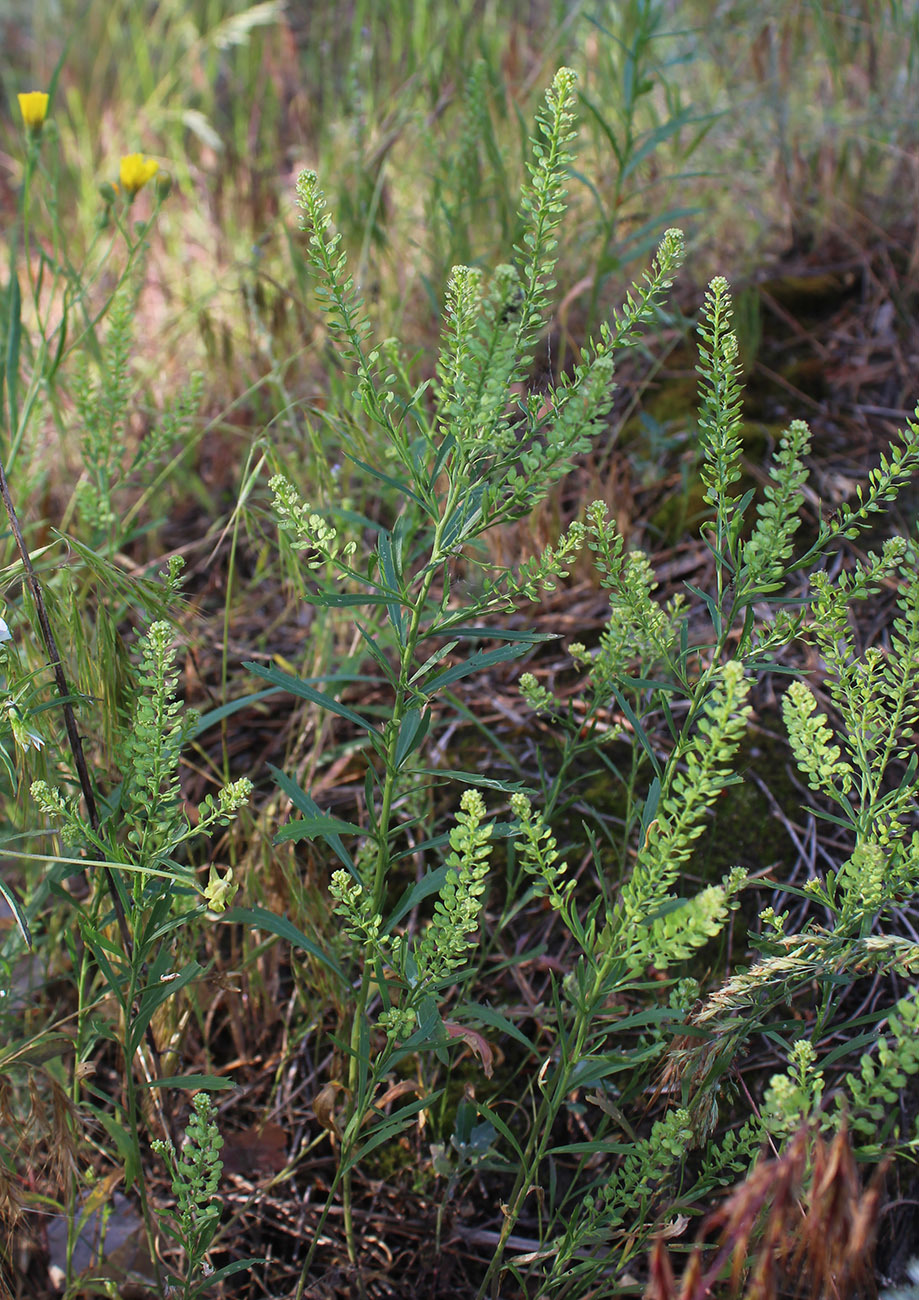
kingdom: Plantae
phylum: Tracheophyta
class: Magnoliopsida
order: Brassicales
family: Brassicaceae
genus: Lepidium
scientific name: Lepidium densiflorum
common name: Miner's pepperwort
